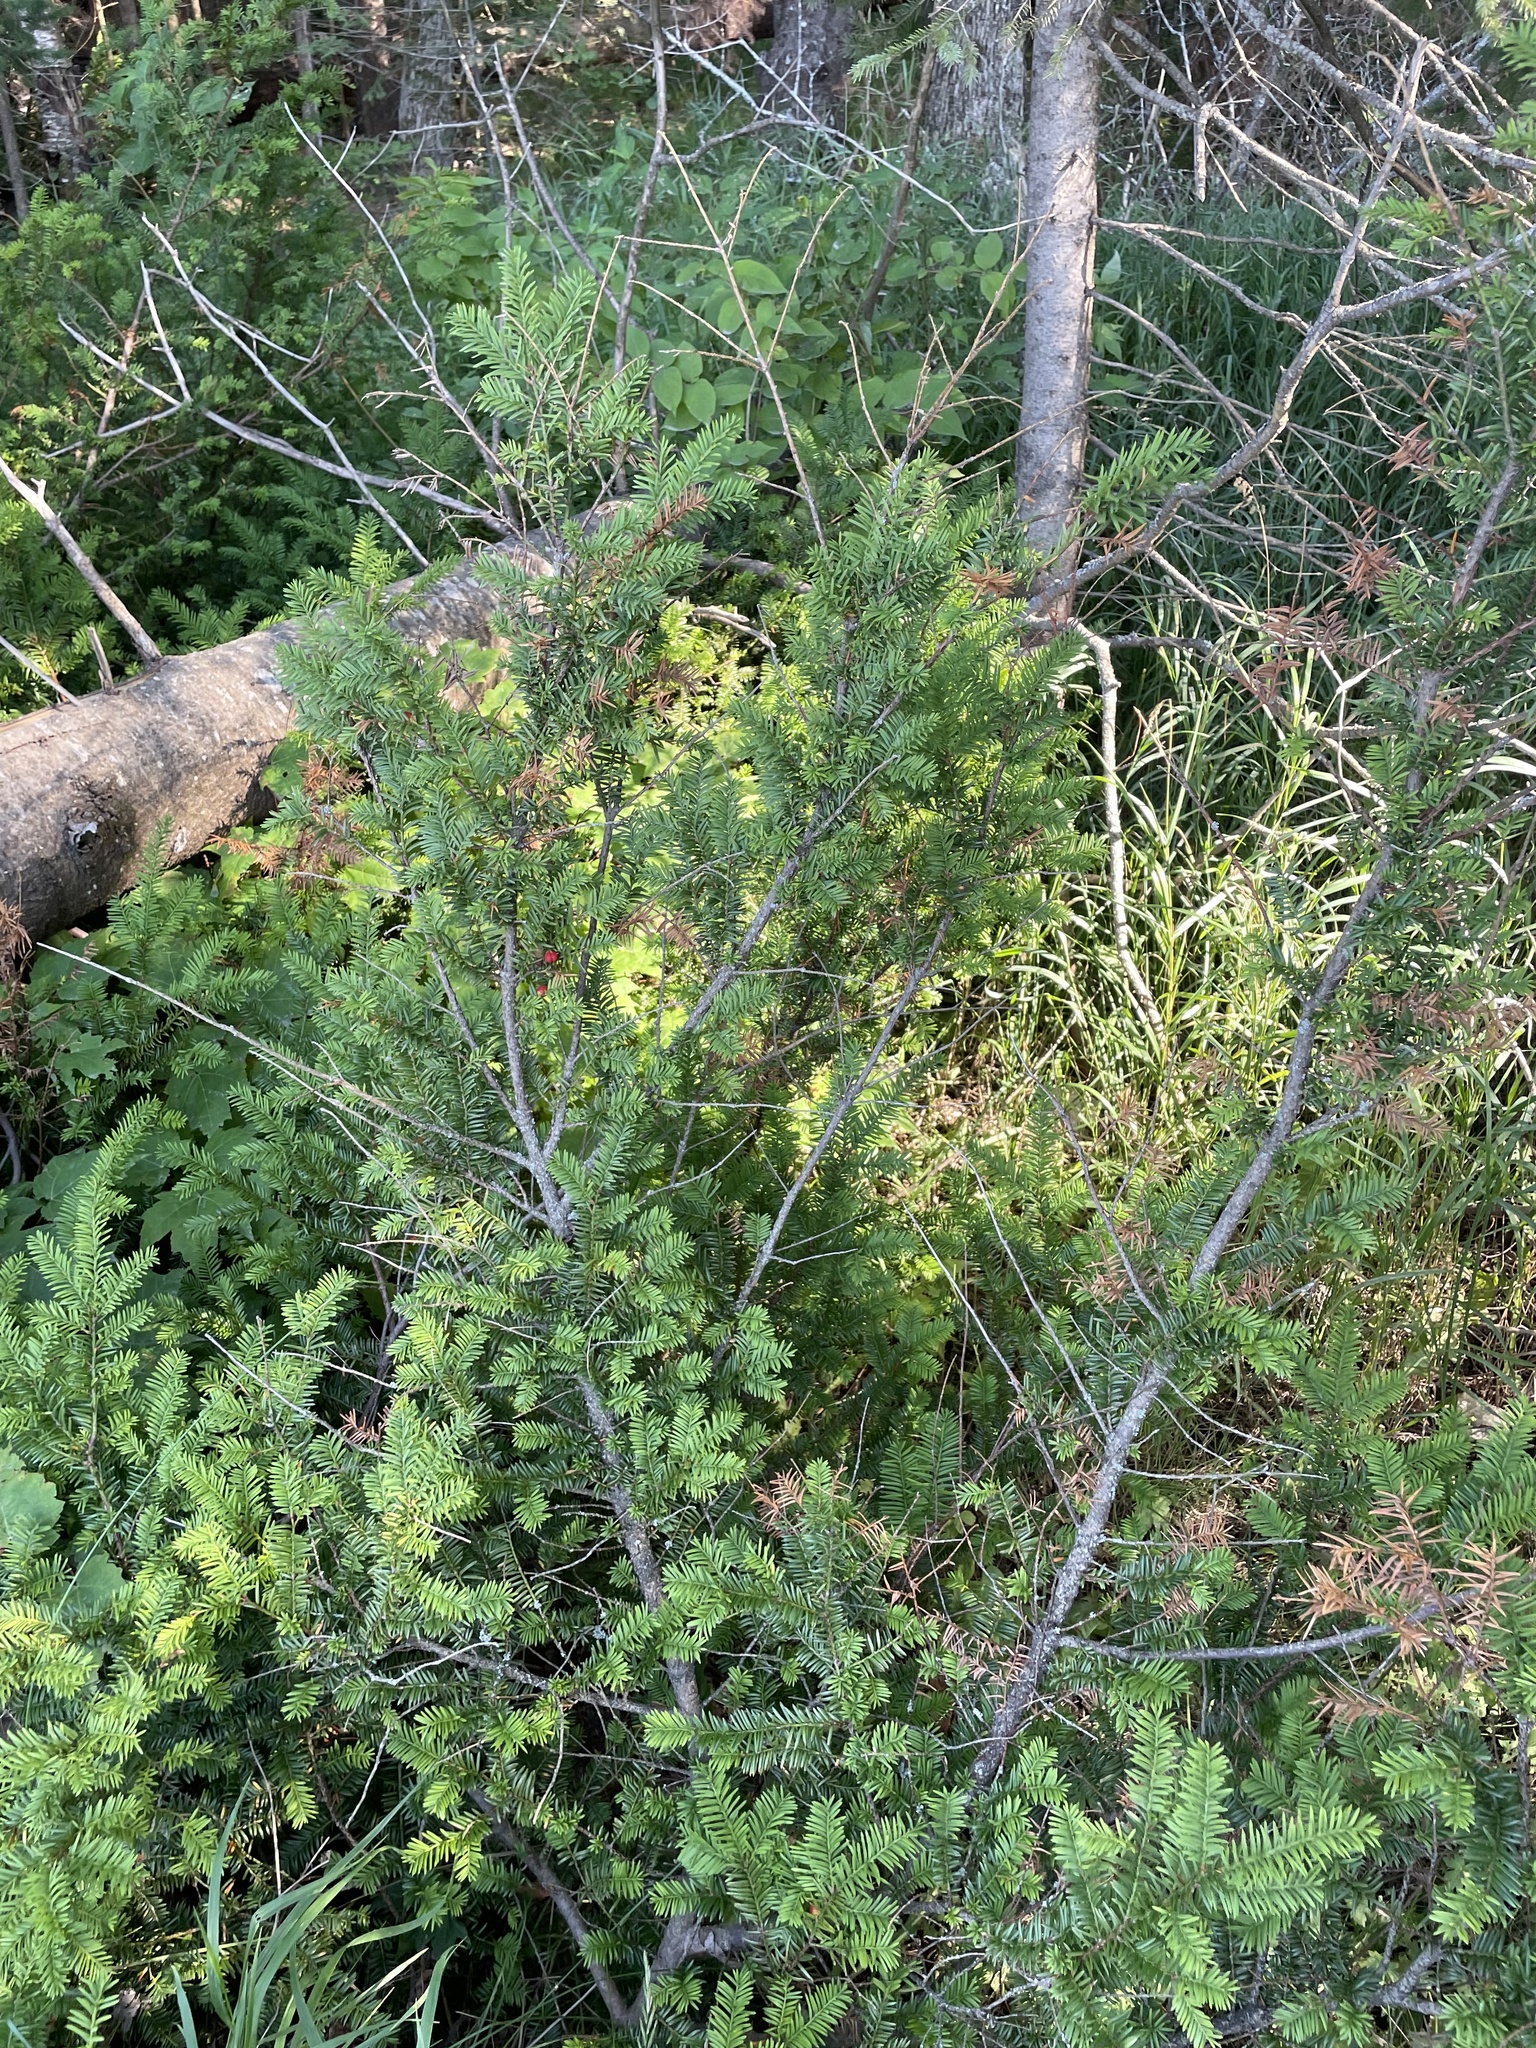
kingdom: Plantae
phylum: Tracheophyta
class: Pinopsida
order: Pinales
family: Taxaceae
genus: Taxus
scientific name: Taxus canadensis
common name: American yew
